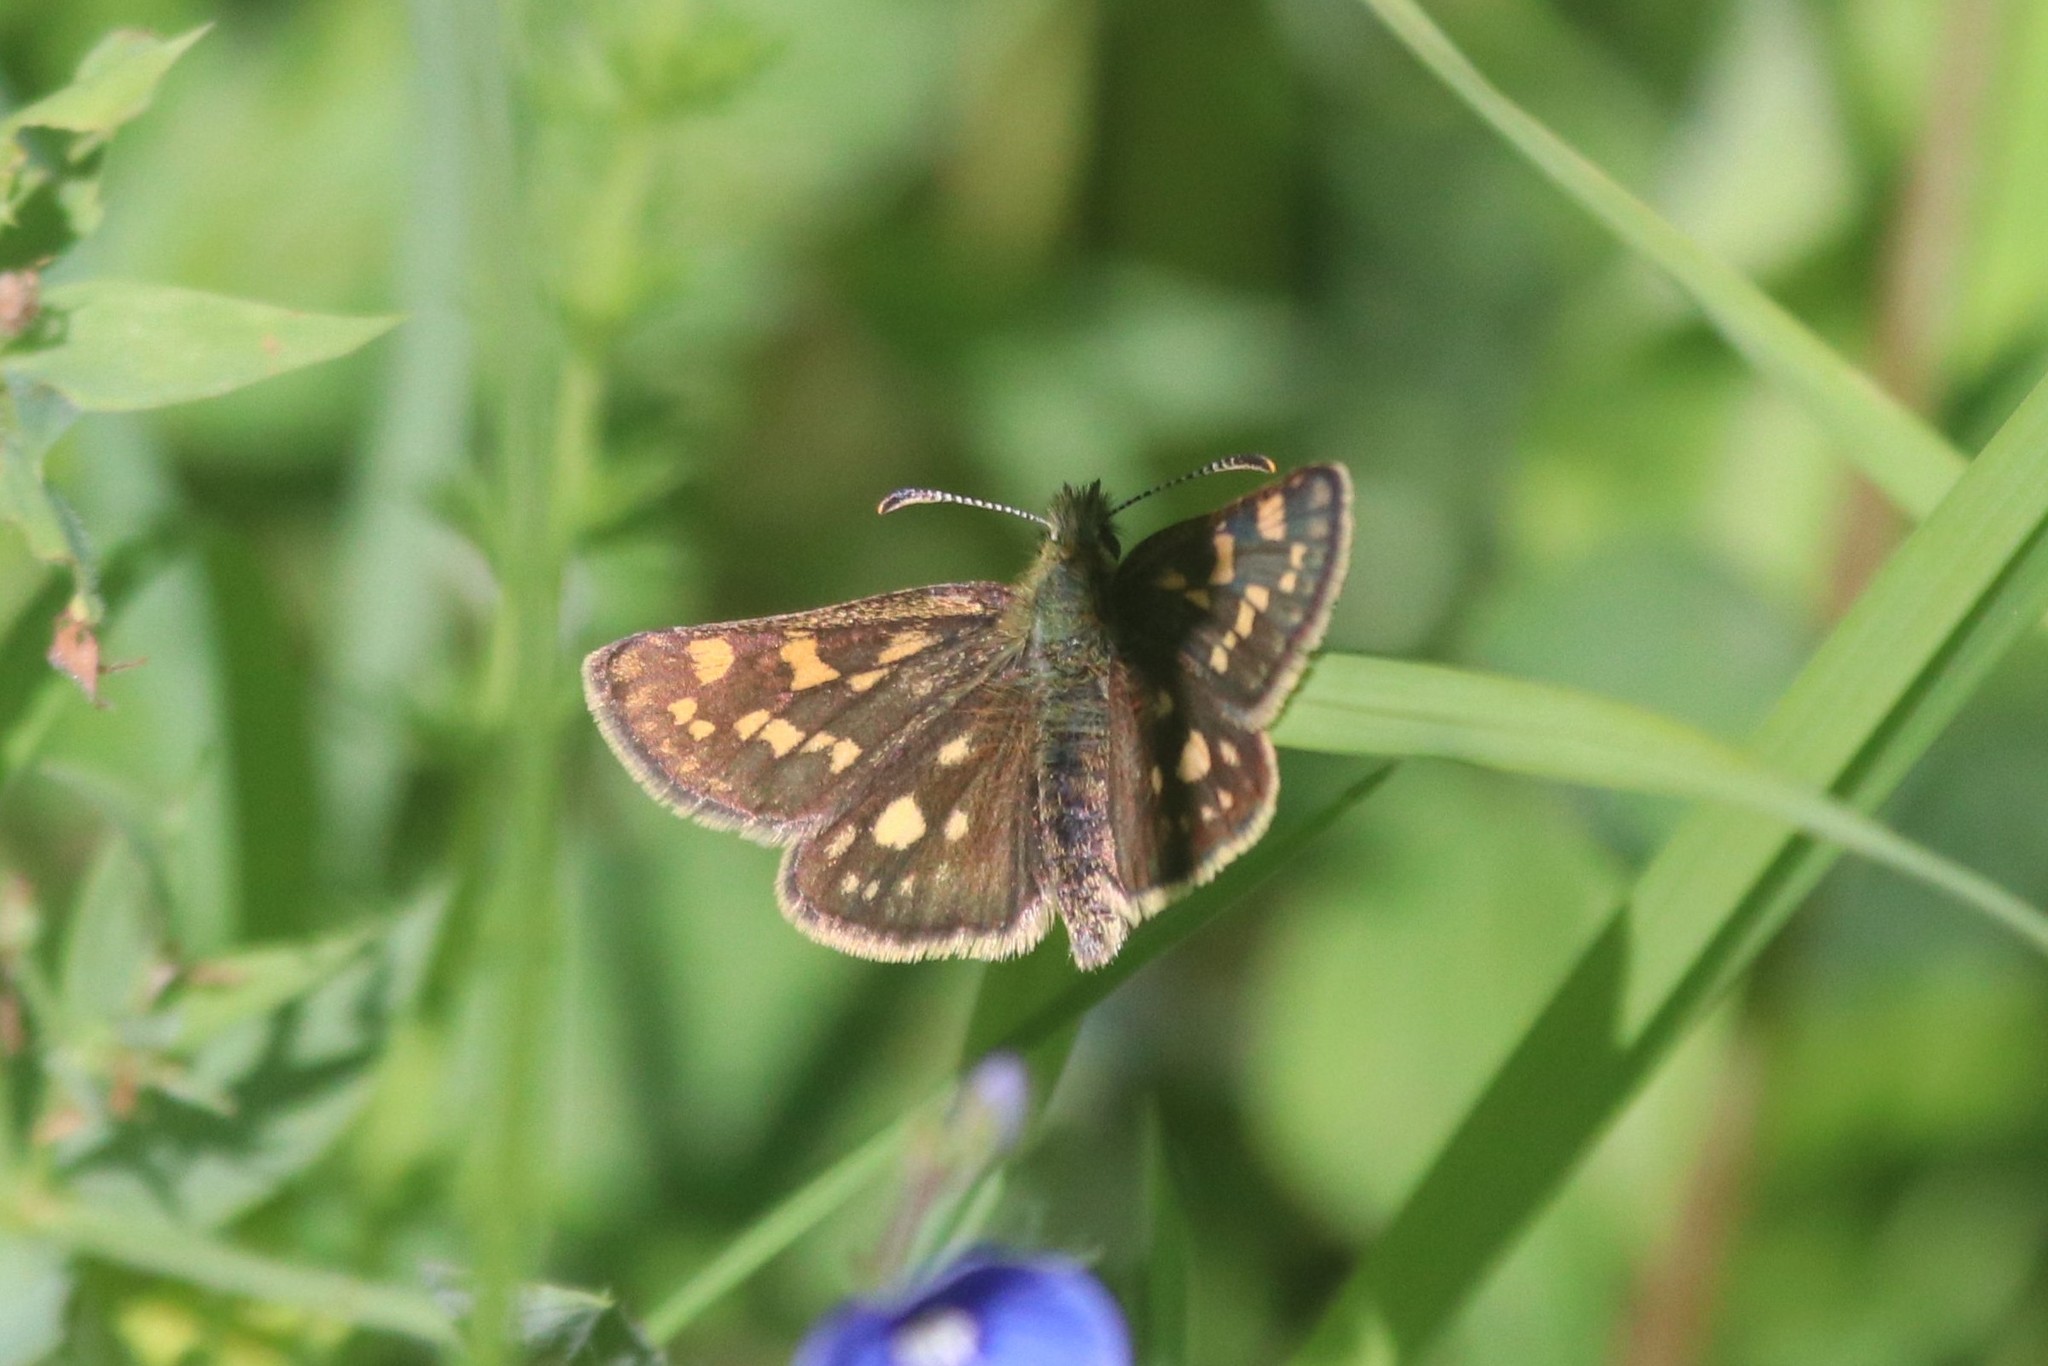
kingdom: Animalia
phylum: Arthropoda
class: Insecta
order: Lepidoptera
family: Hesperiidae
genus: Carterocephalus
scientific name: Carterocephalus palaemon
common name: Chequered skipper
